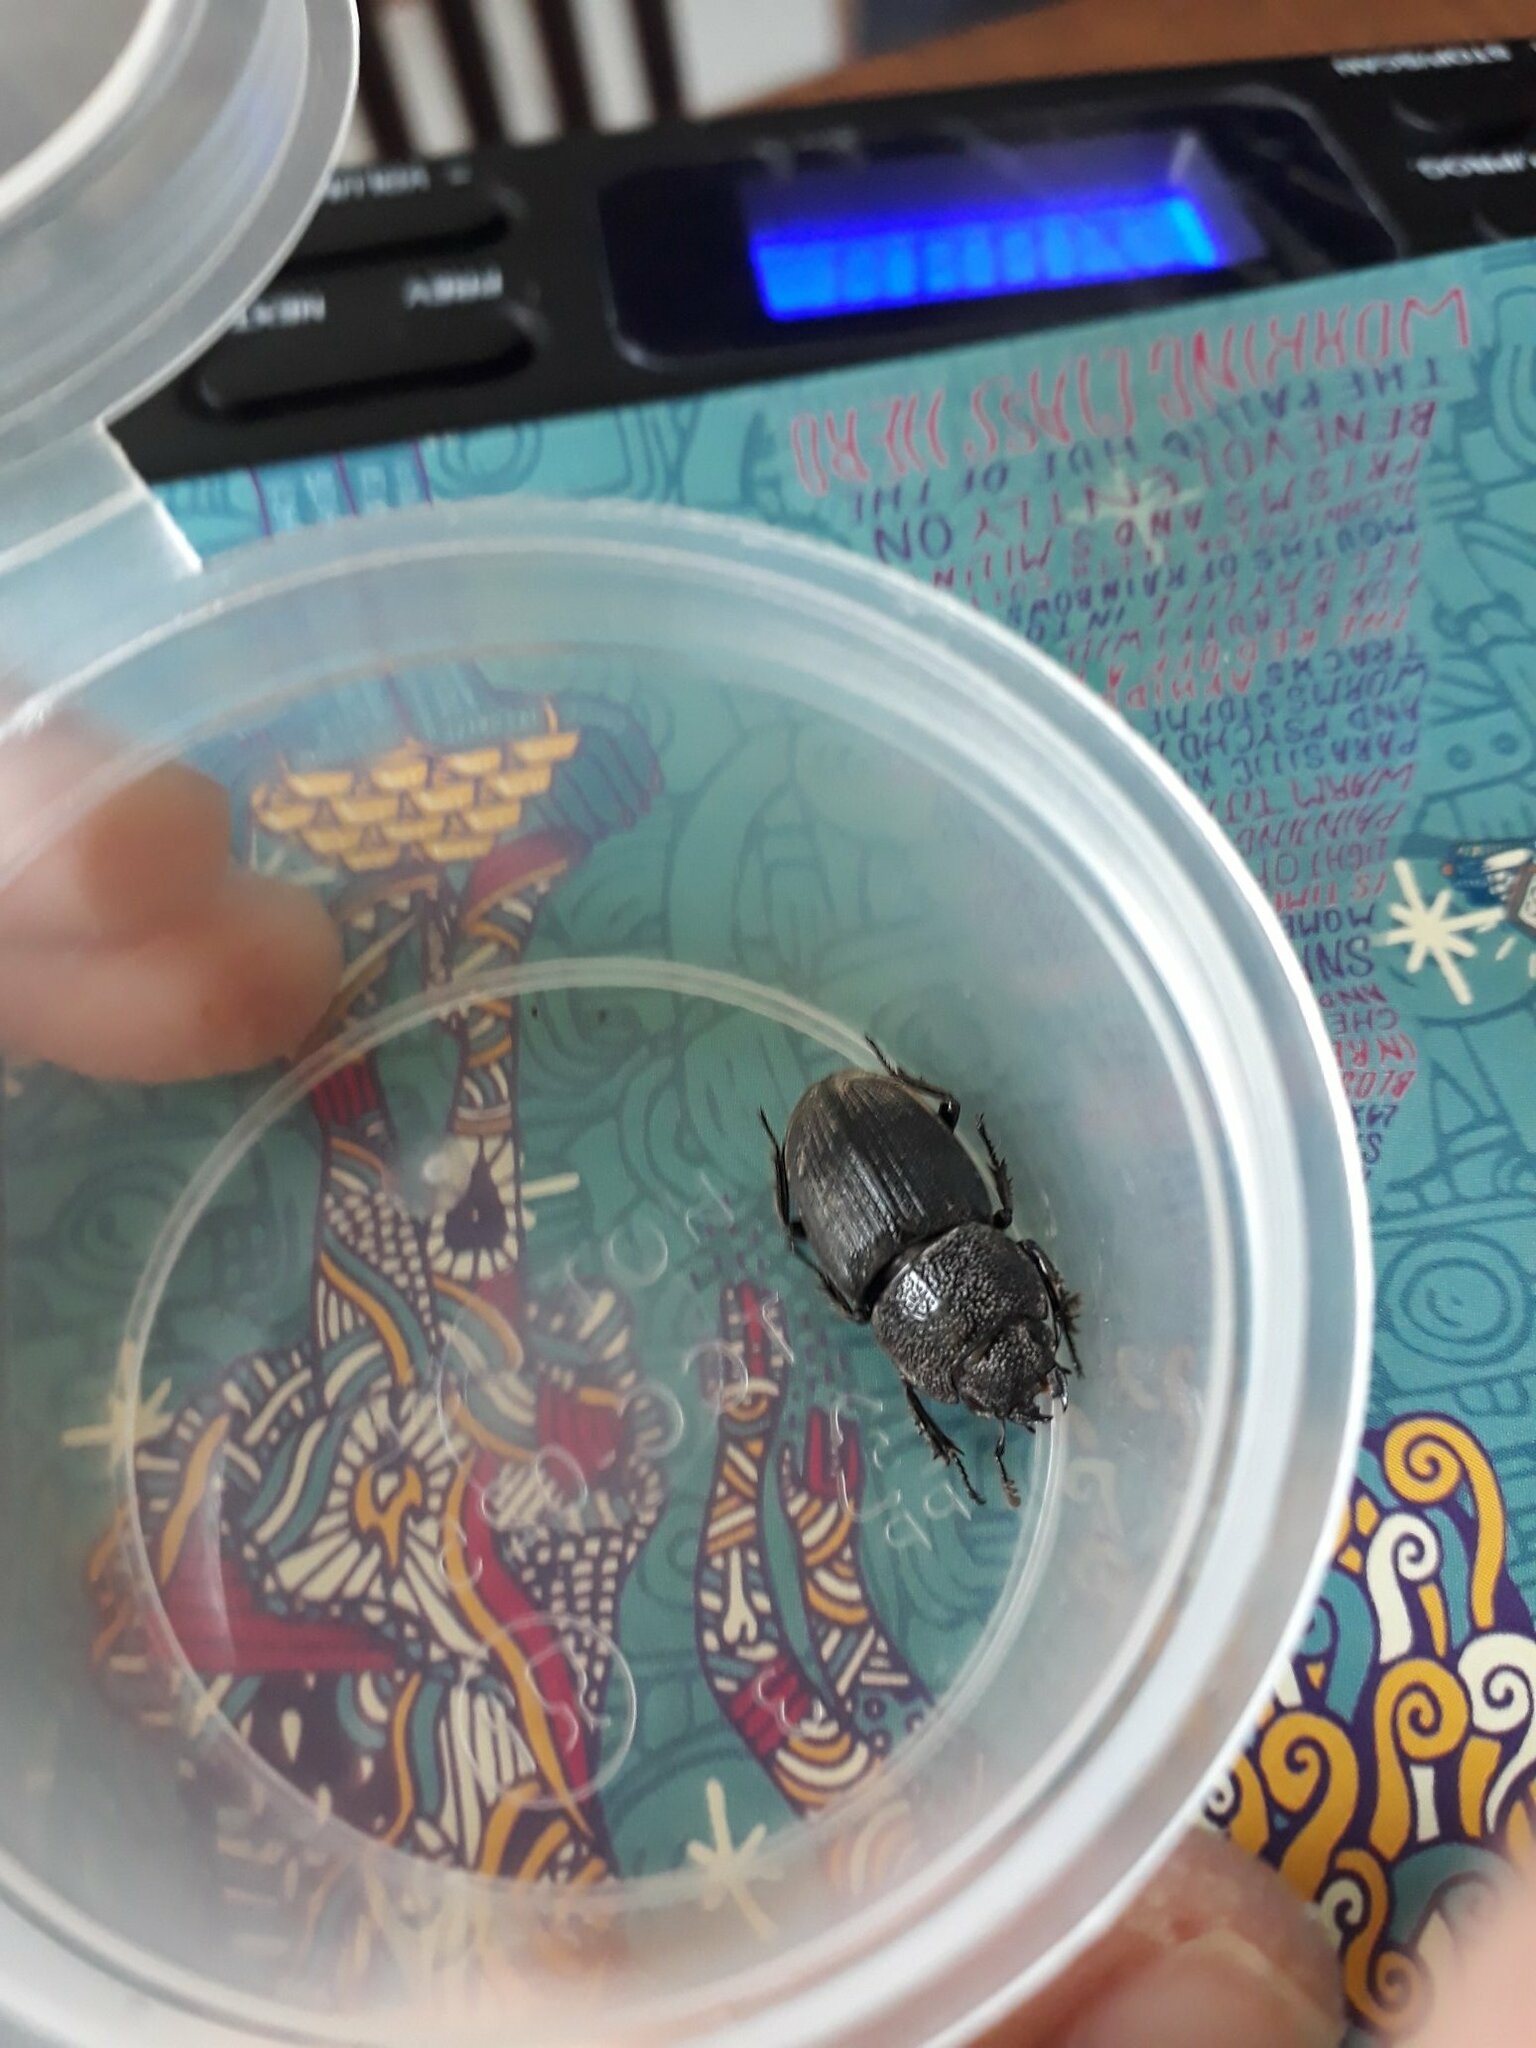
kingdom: Animalia
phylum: Arthropoda
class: Insecta
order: Coleoptera
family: Lucanidae
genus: Aegus
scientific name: Aegus chelifer
